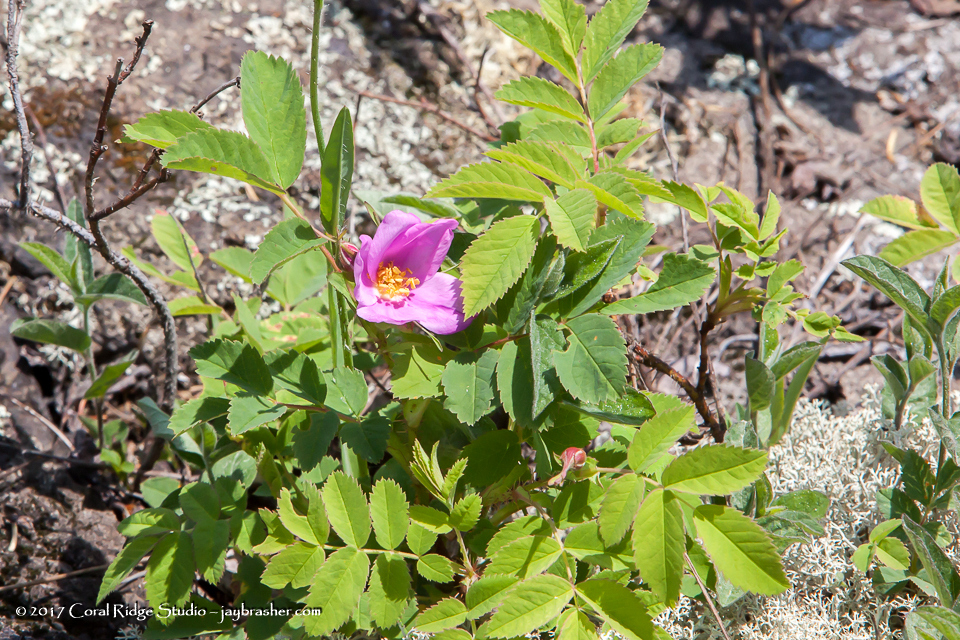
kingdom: Plantae
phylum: Tracheophyta
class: Magnoliopsida
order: Rosales
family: Rosaceae
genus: Rosa
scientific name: Rosa acicularis
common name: Prickly rose
